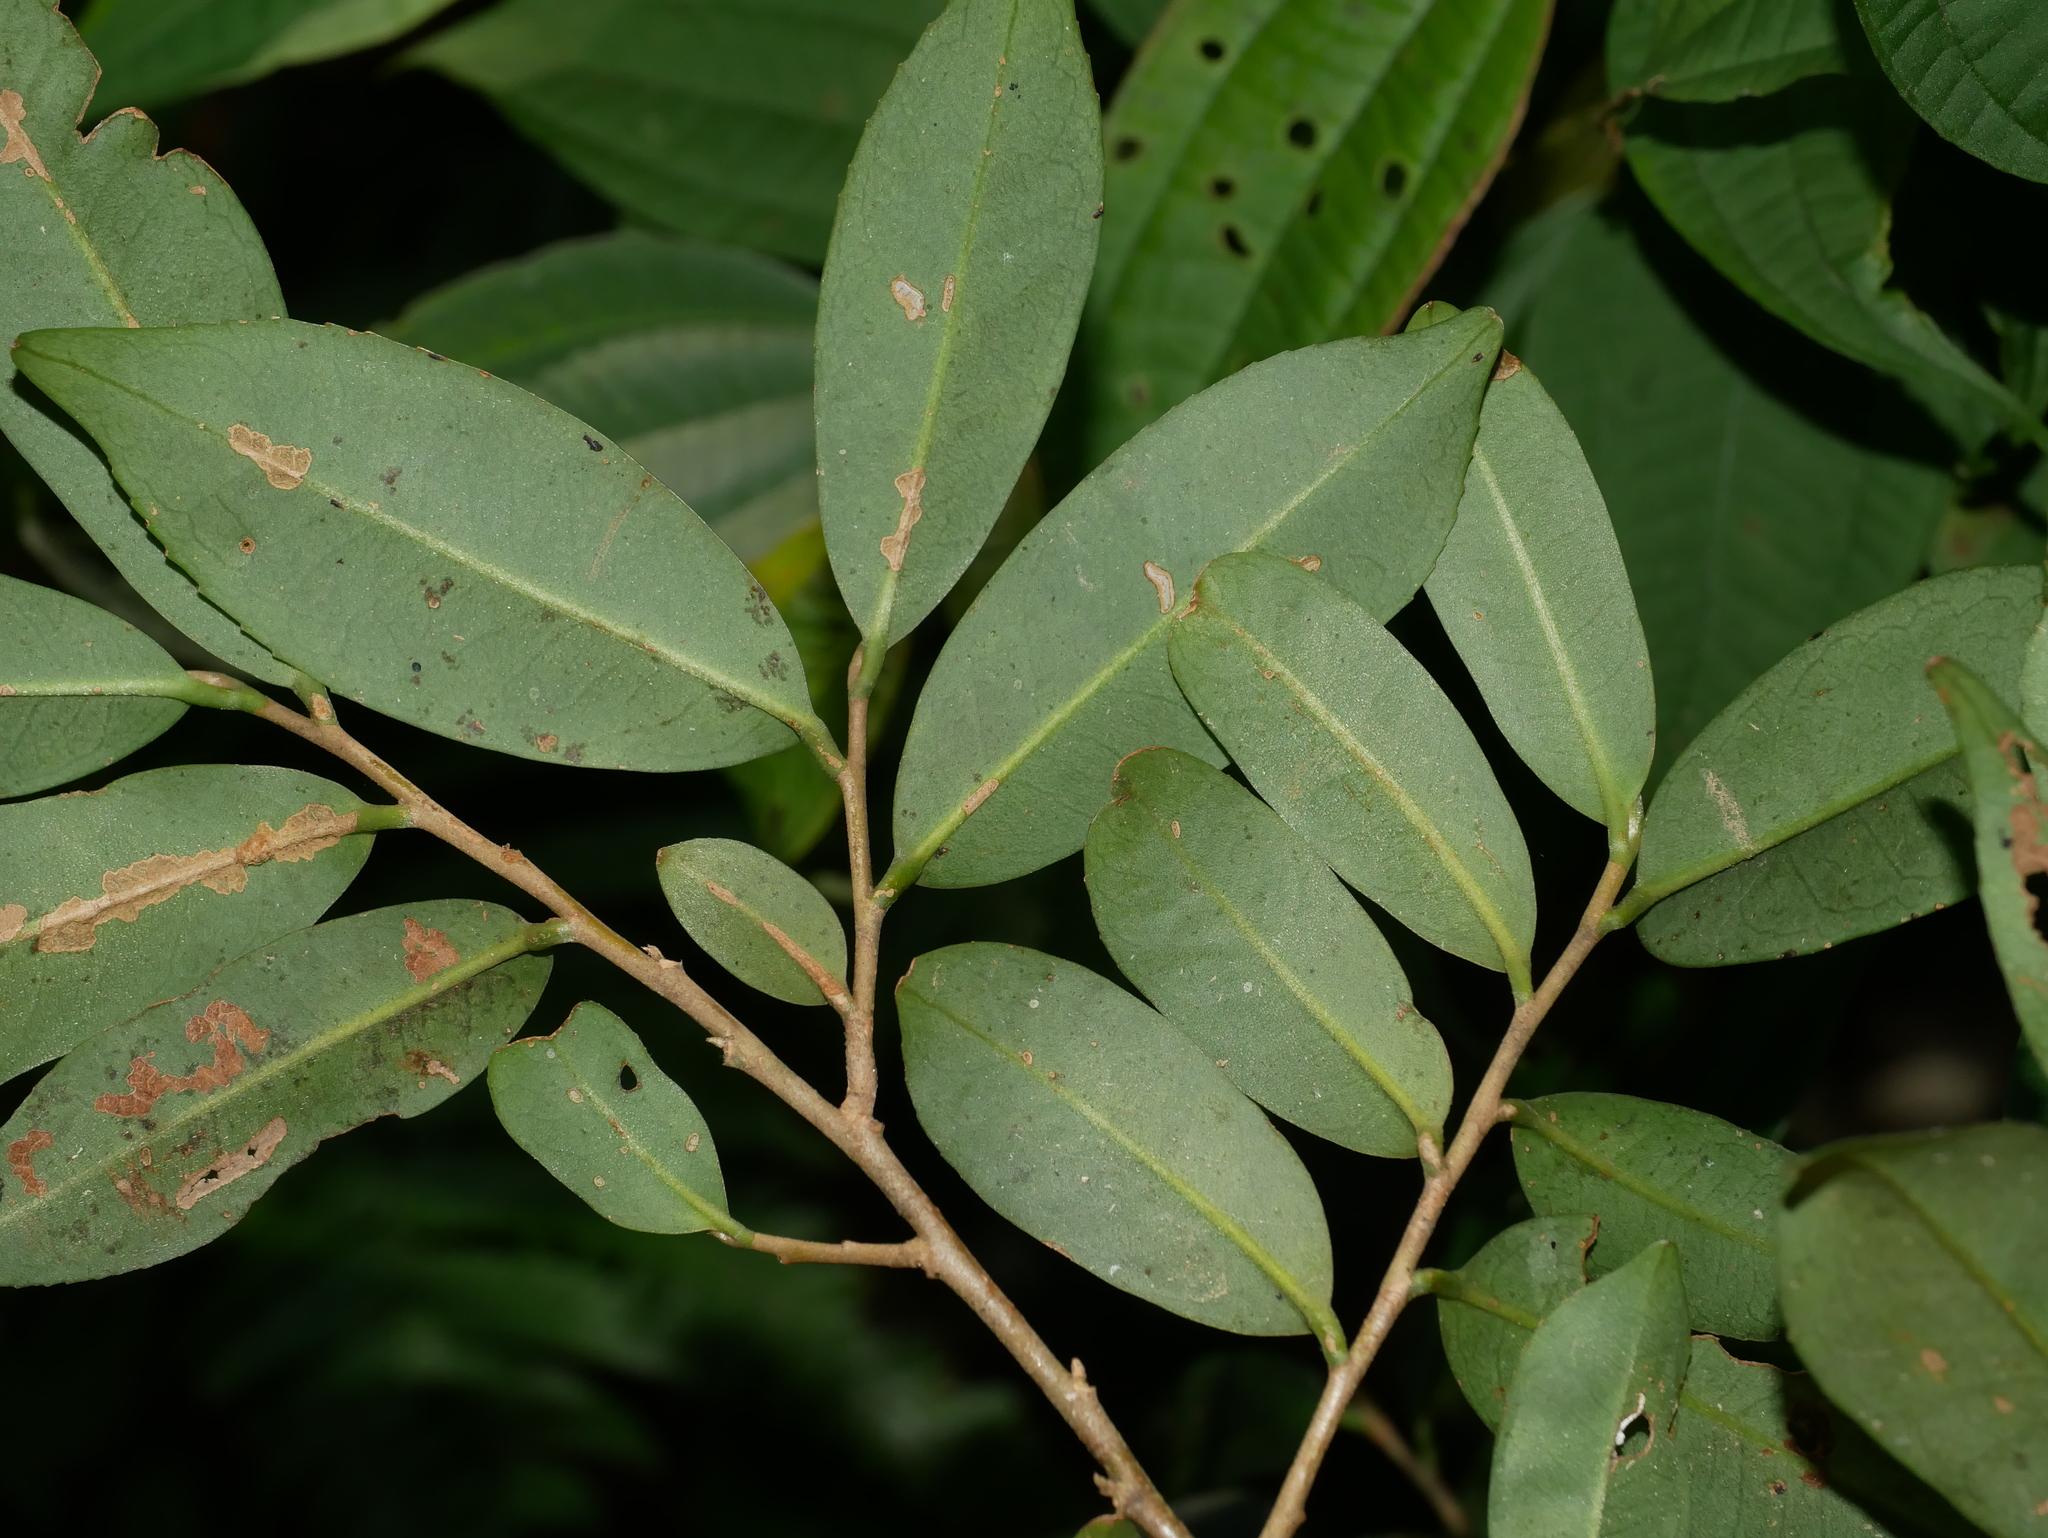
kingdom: Plantae
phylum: Tracheophyta
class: Magnoliopsida
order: Ericales
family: Pentaphylacaceae
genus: Adinandra
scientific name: Adinandra formosana
